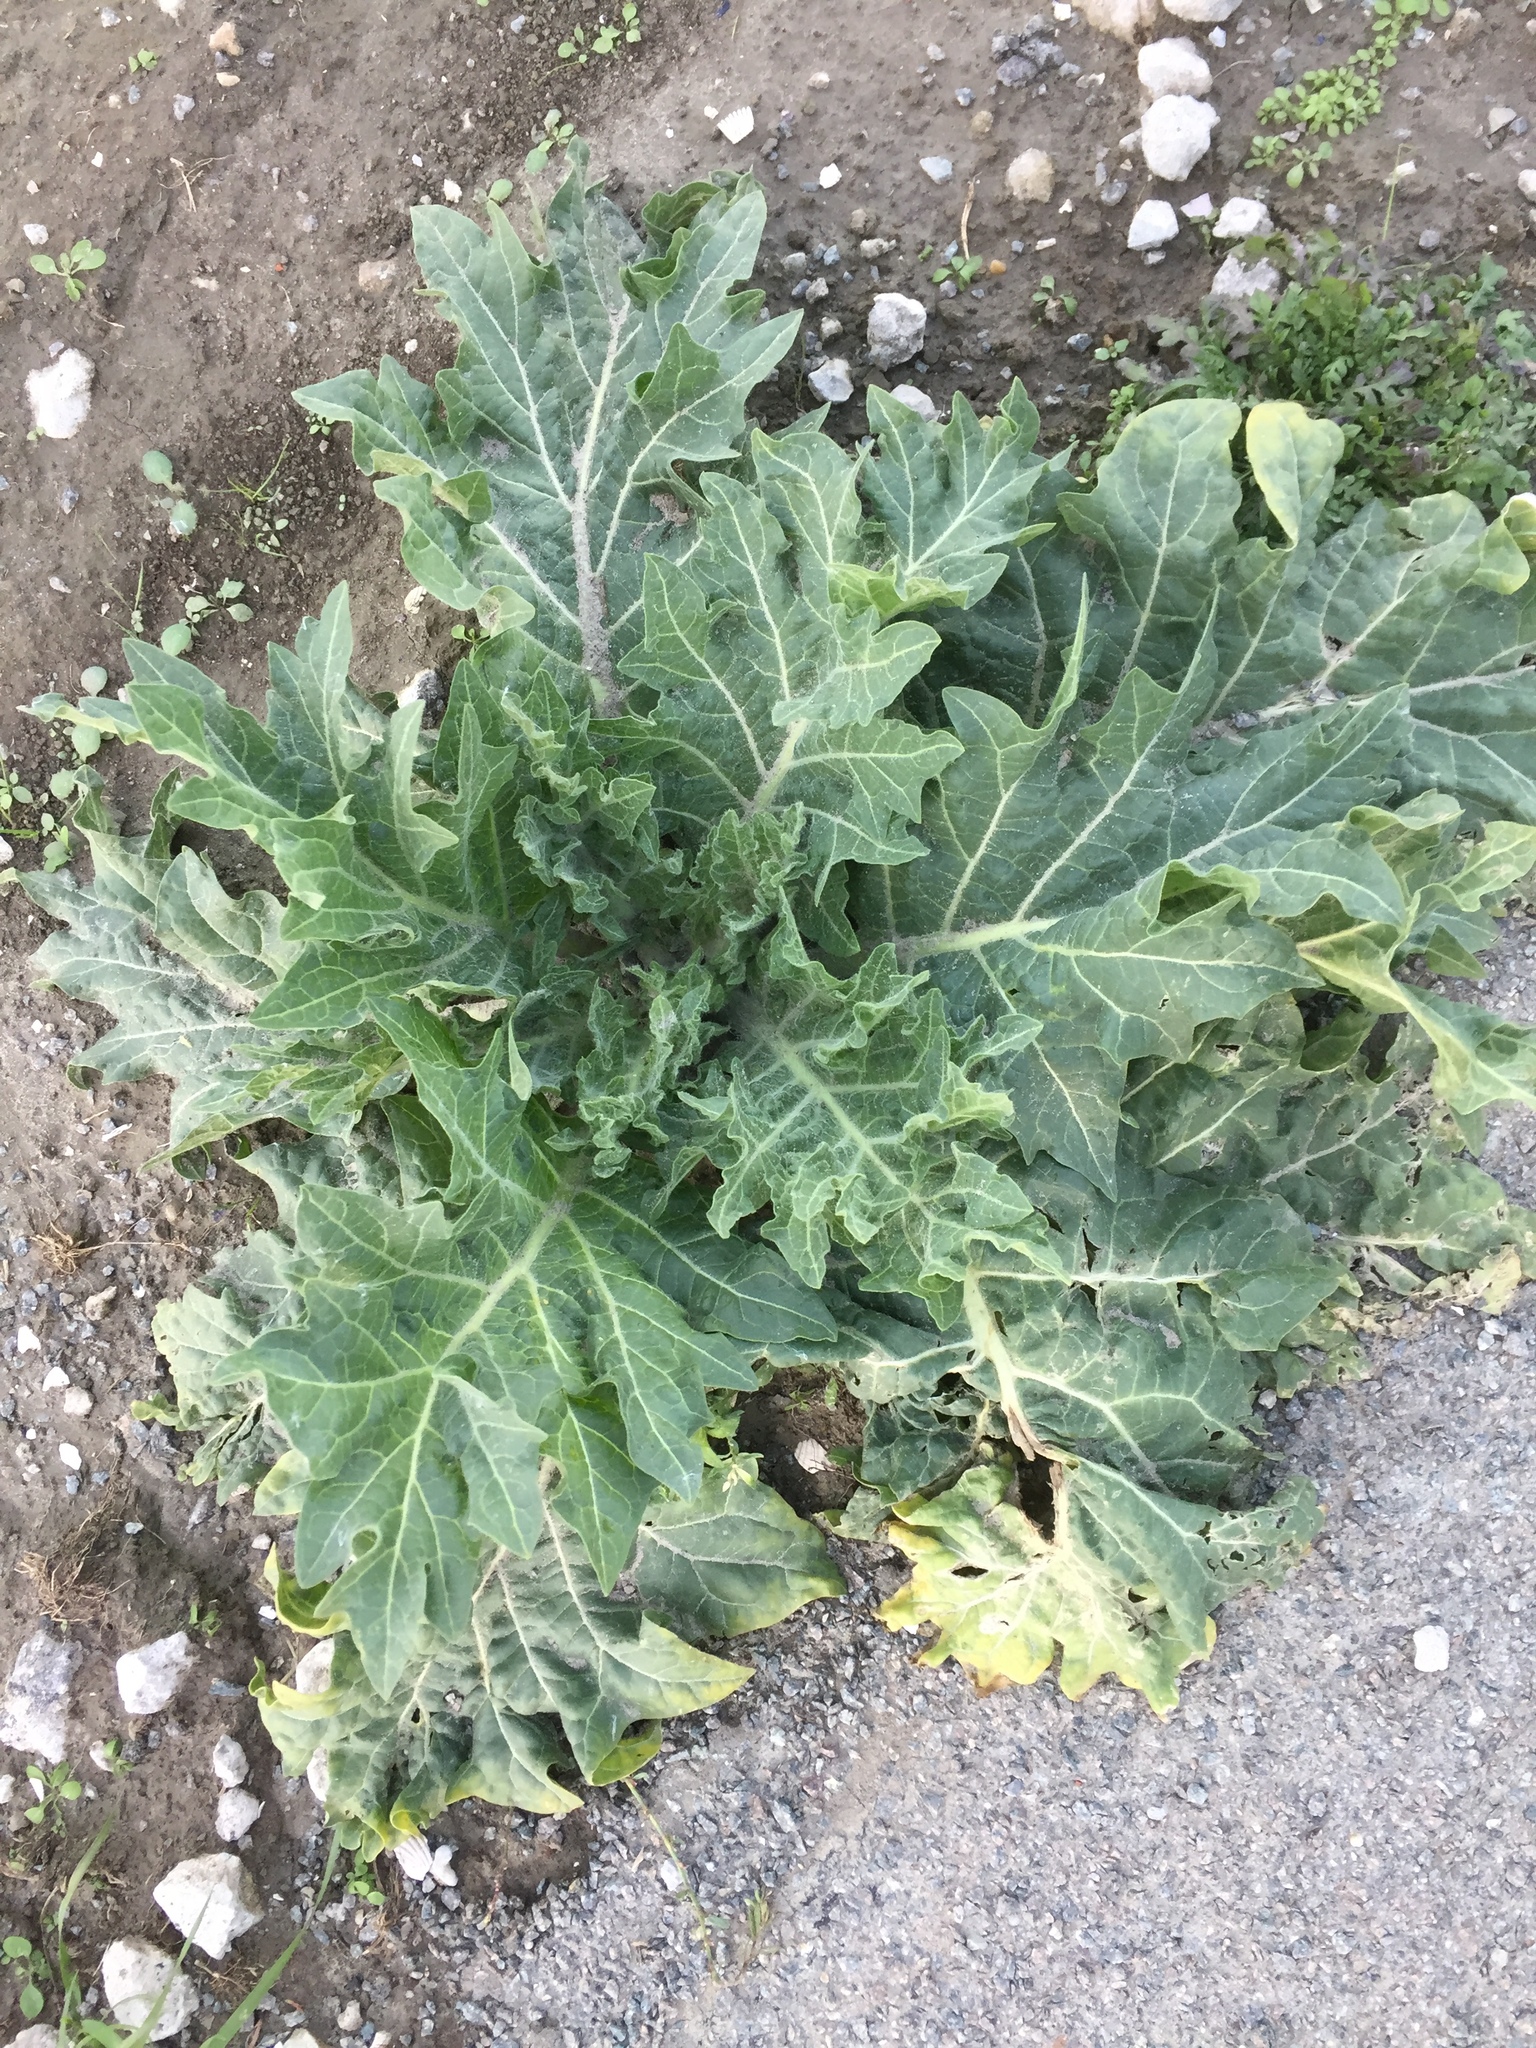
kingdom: Plantae
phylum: Tracheophyta
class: Magnoliopsida
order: Solanales
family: Solanaceae
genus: Hyoscyamus
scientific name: Hyoscyamus niger
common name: Henbane
